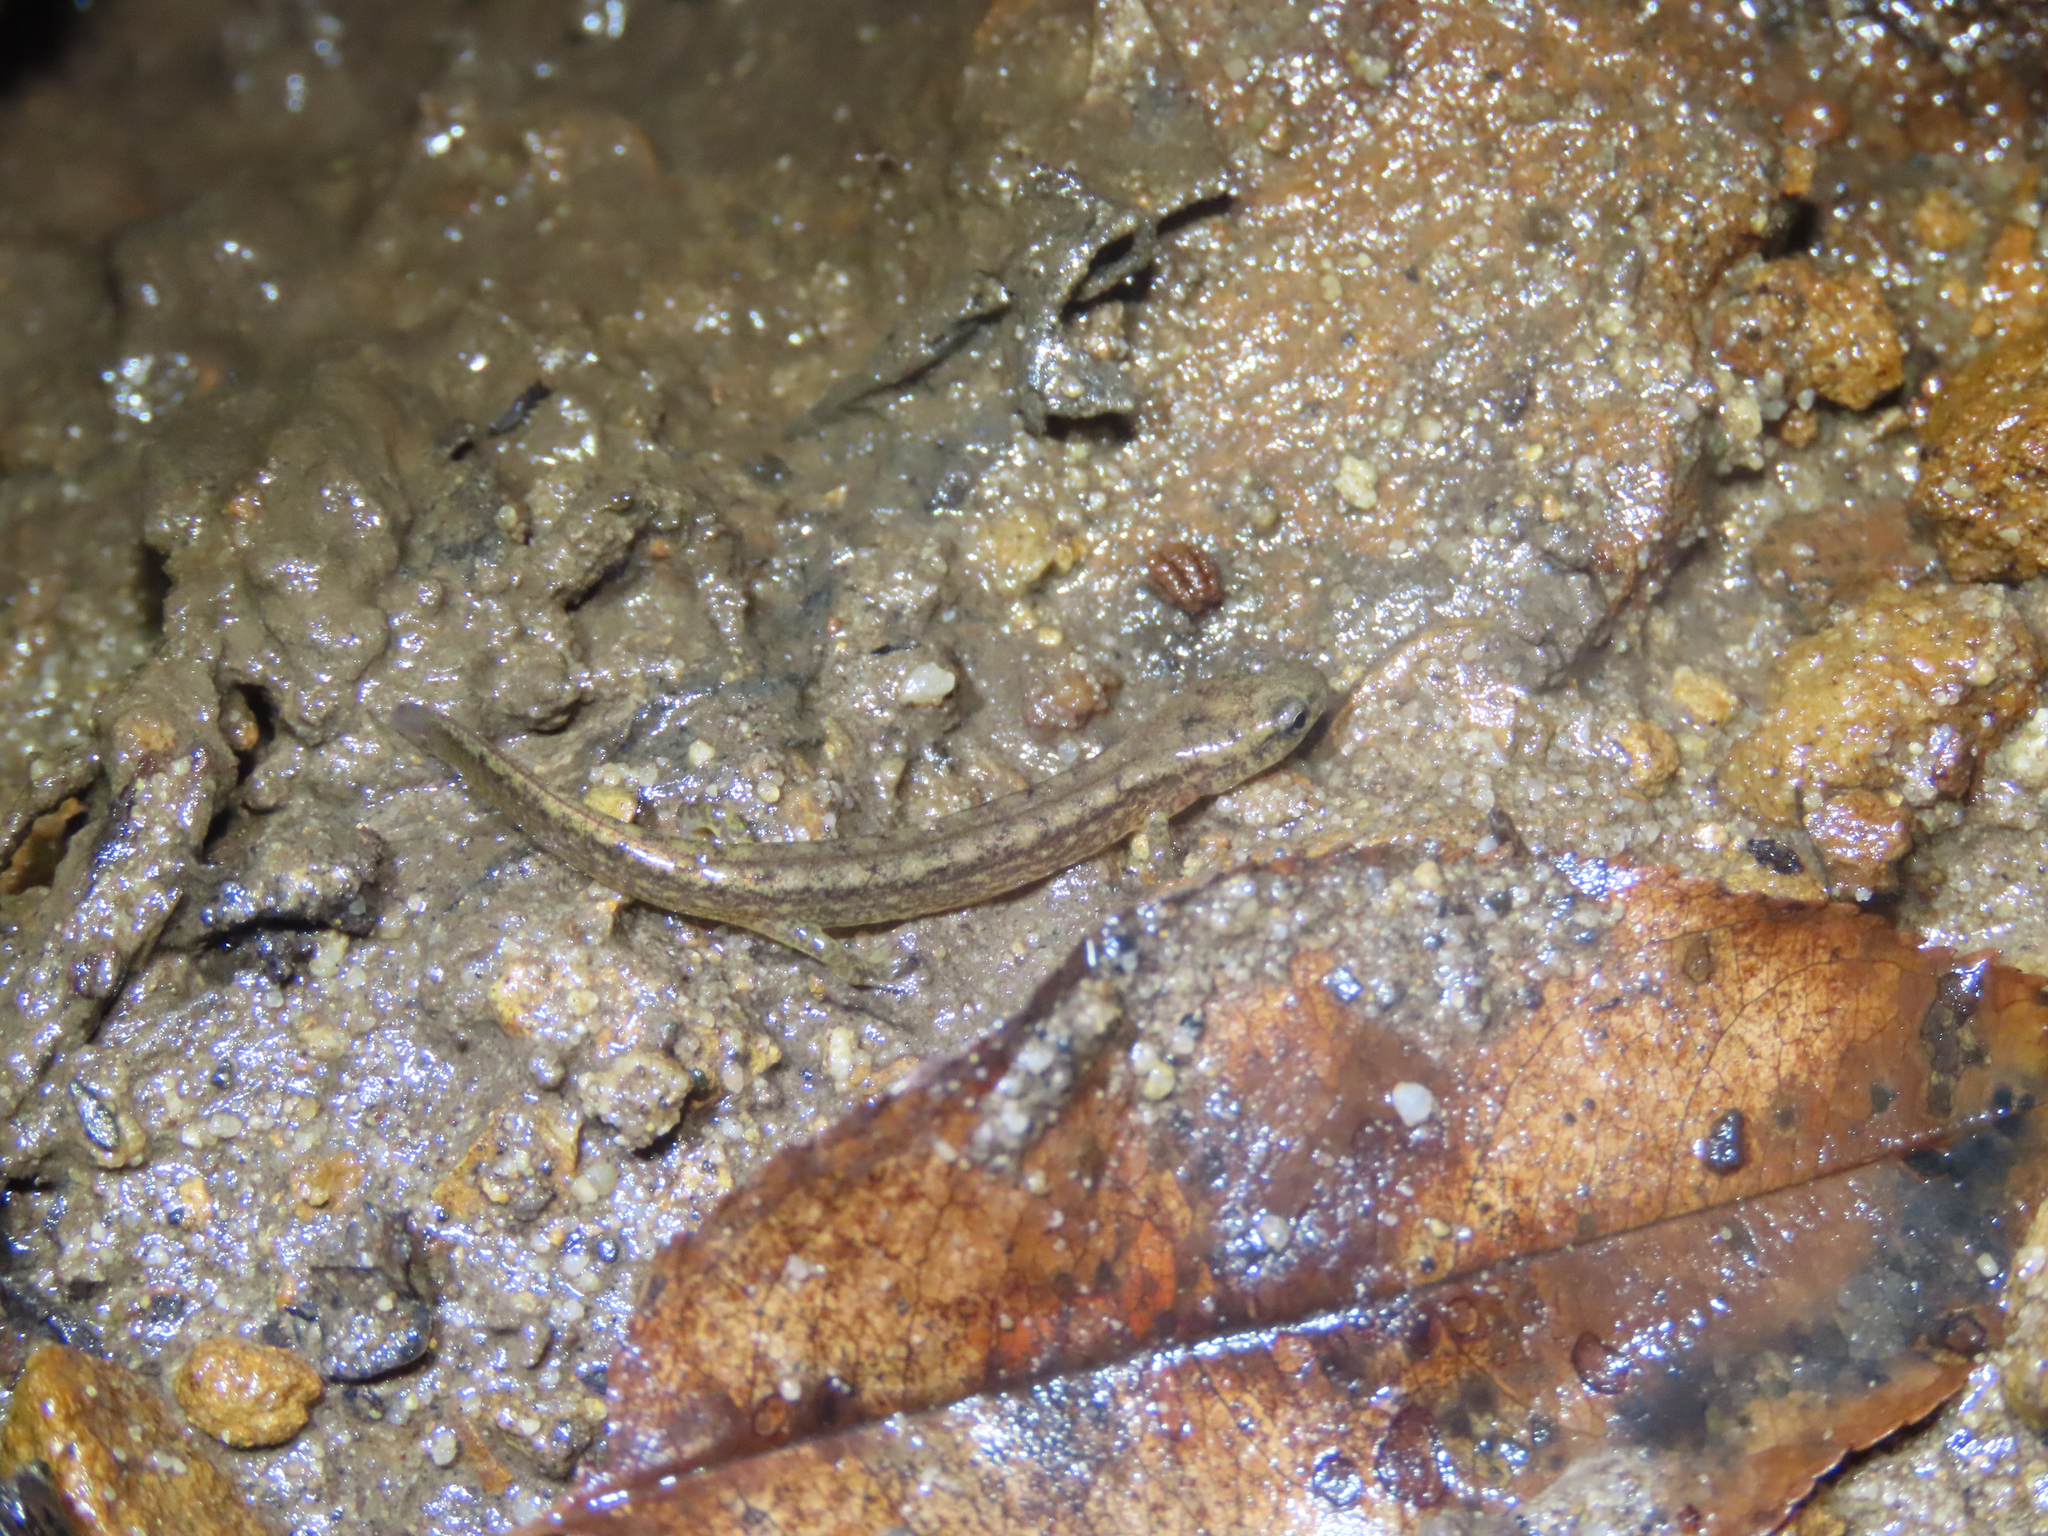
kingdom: Animalia
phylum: Chordata
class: Amphibia
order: Caudata
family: Plethodontidae
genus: Eurycea
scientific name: Eurycea bislineata
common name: Northern two-lined salamander
